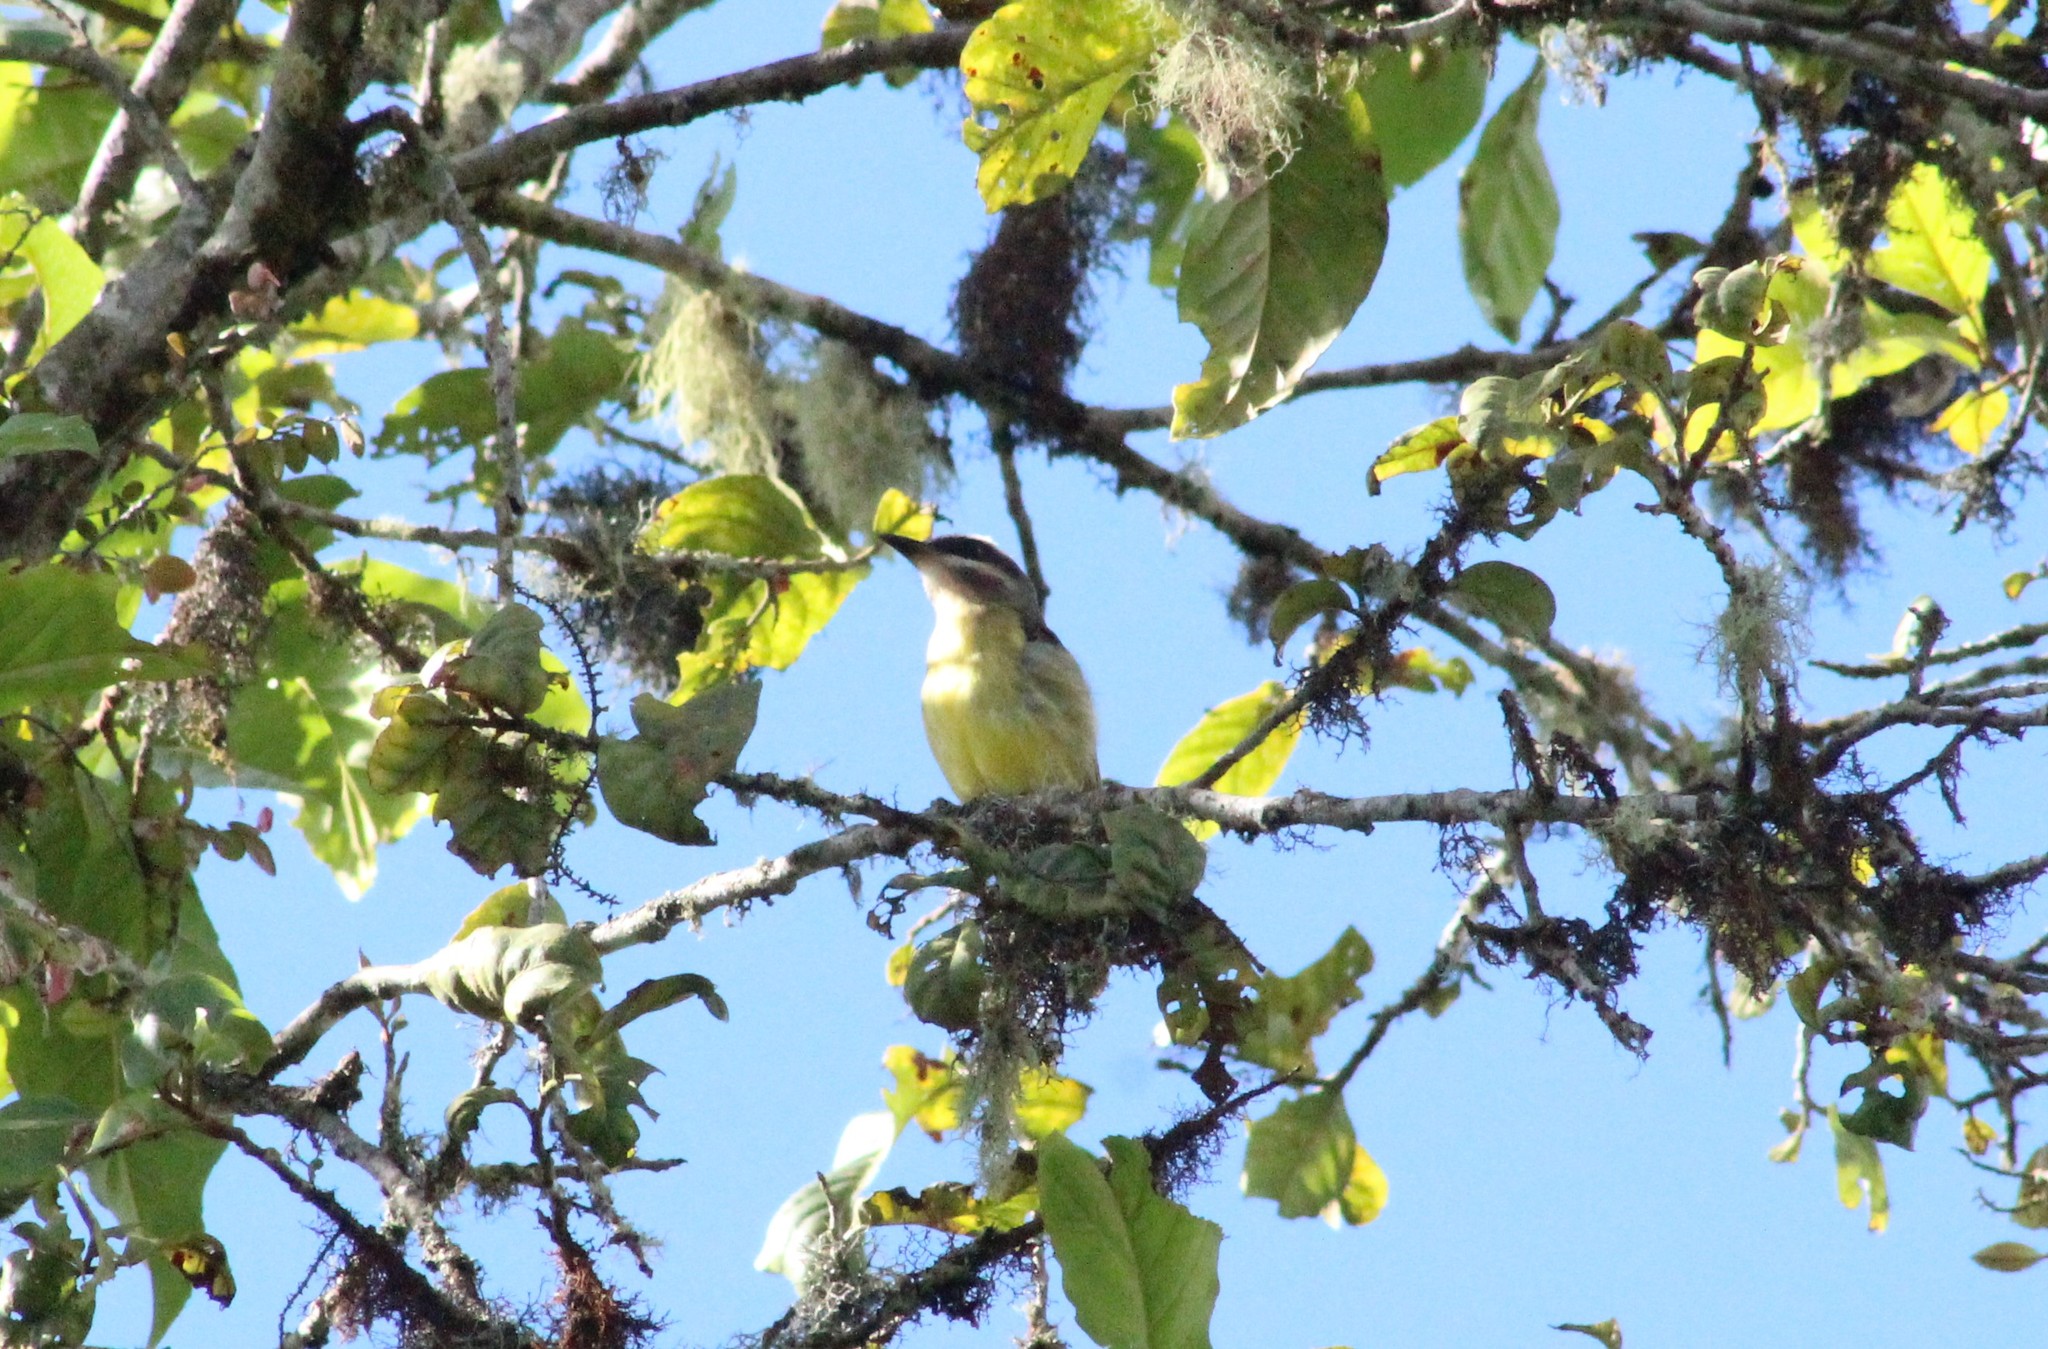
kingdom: Animalia
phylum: Chordata
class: Aves
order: Passeriformes
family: Tyrannidae
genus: Myiodynastes
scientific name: Myiodynastes hemichrysus
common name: Golden-bellied flycatcher
